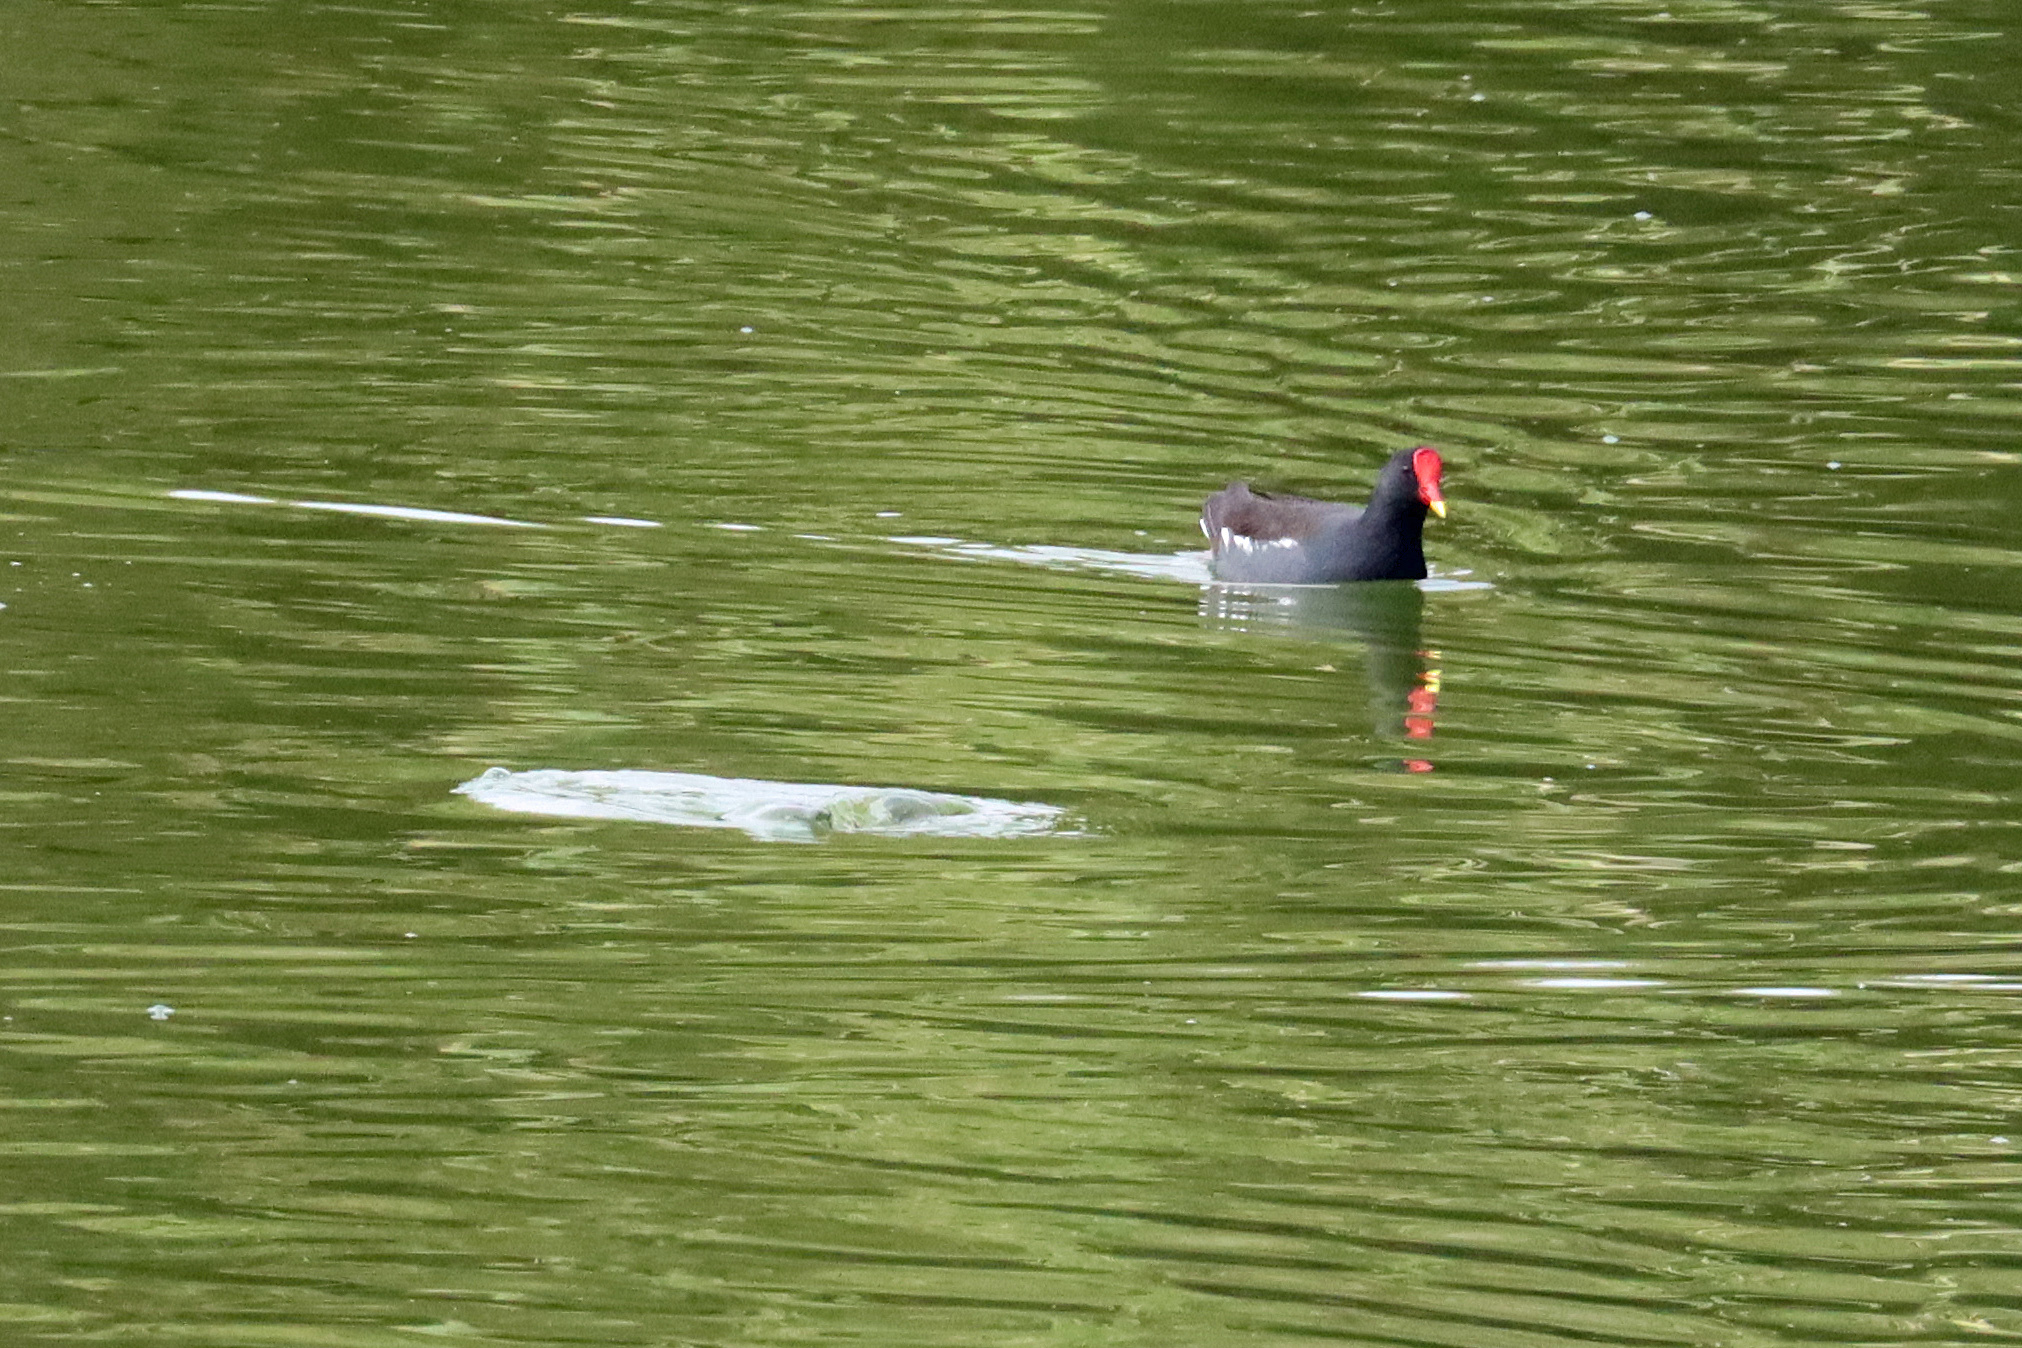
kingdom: Animalia
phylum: Chordata
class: Aves
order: Gruiformes
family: Rallidae
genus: Gallinula
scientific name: Gallinula chloropus
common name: Common moorhen
